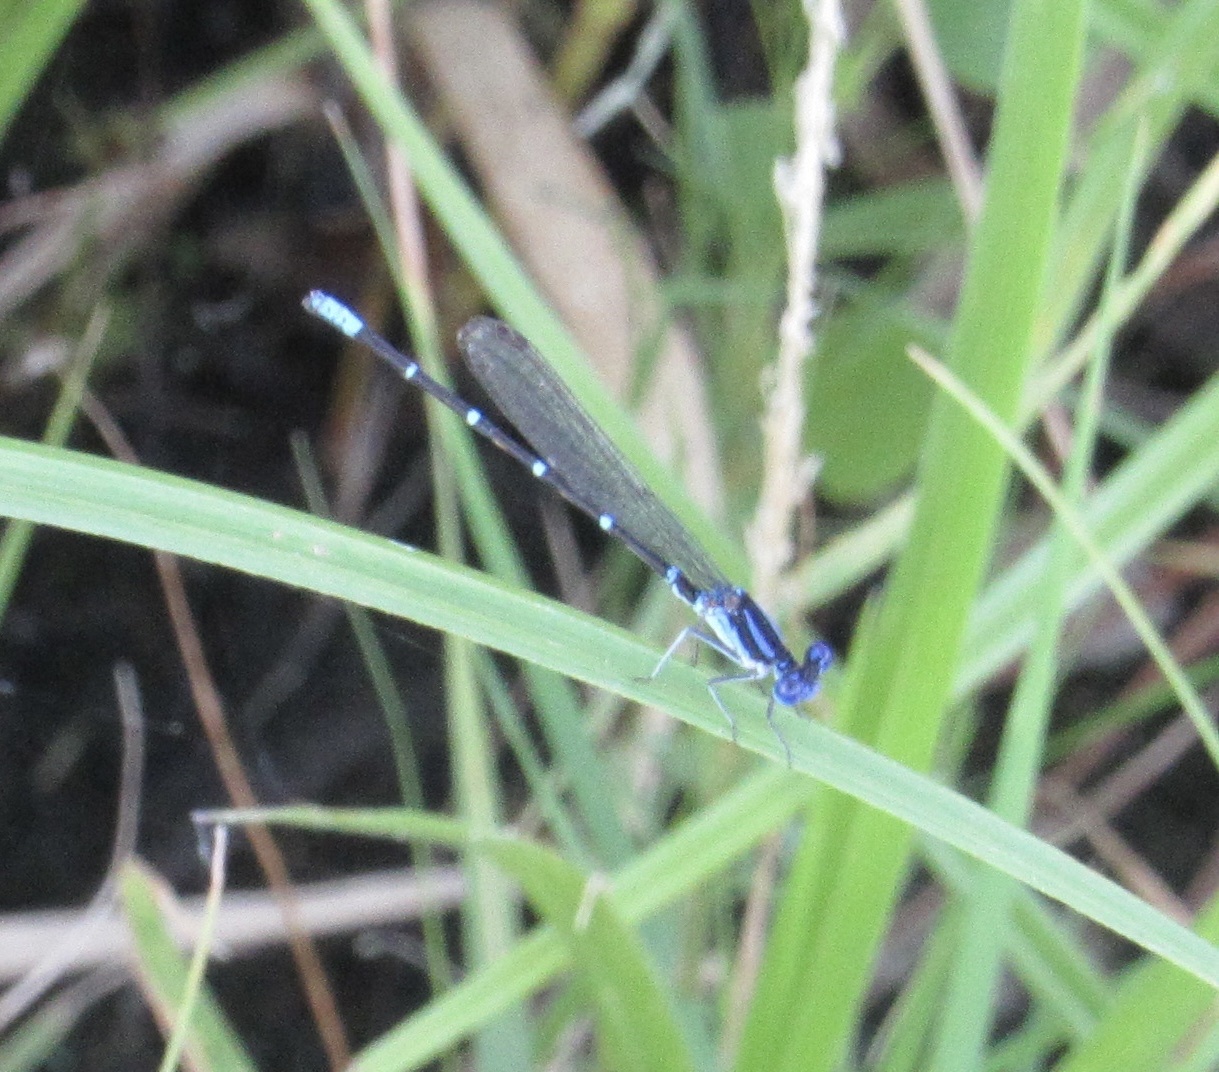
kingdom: Animalia
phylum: Arthropoda
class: Insecta
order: Odonata
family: Coenagrionidae
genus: Argia
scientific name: Argia sedula
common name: Blue-ringed dancer
